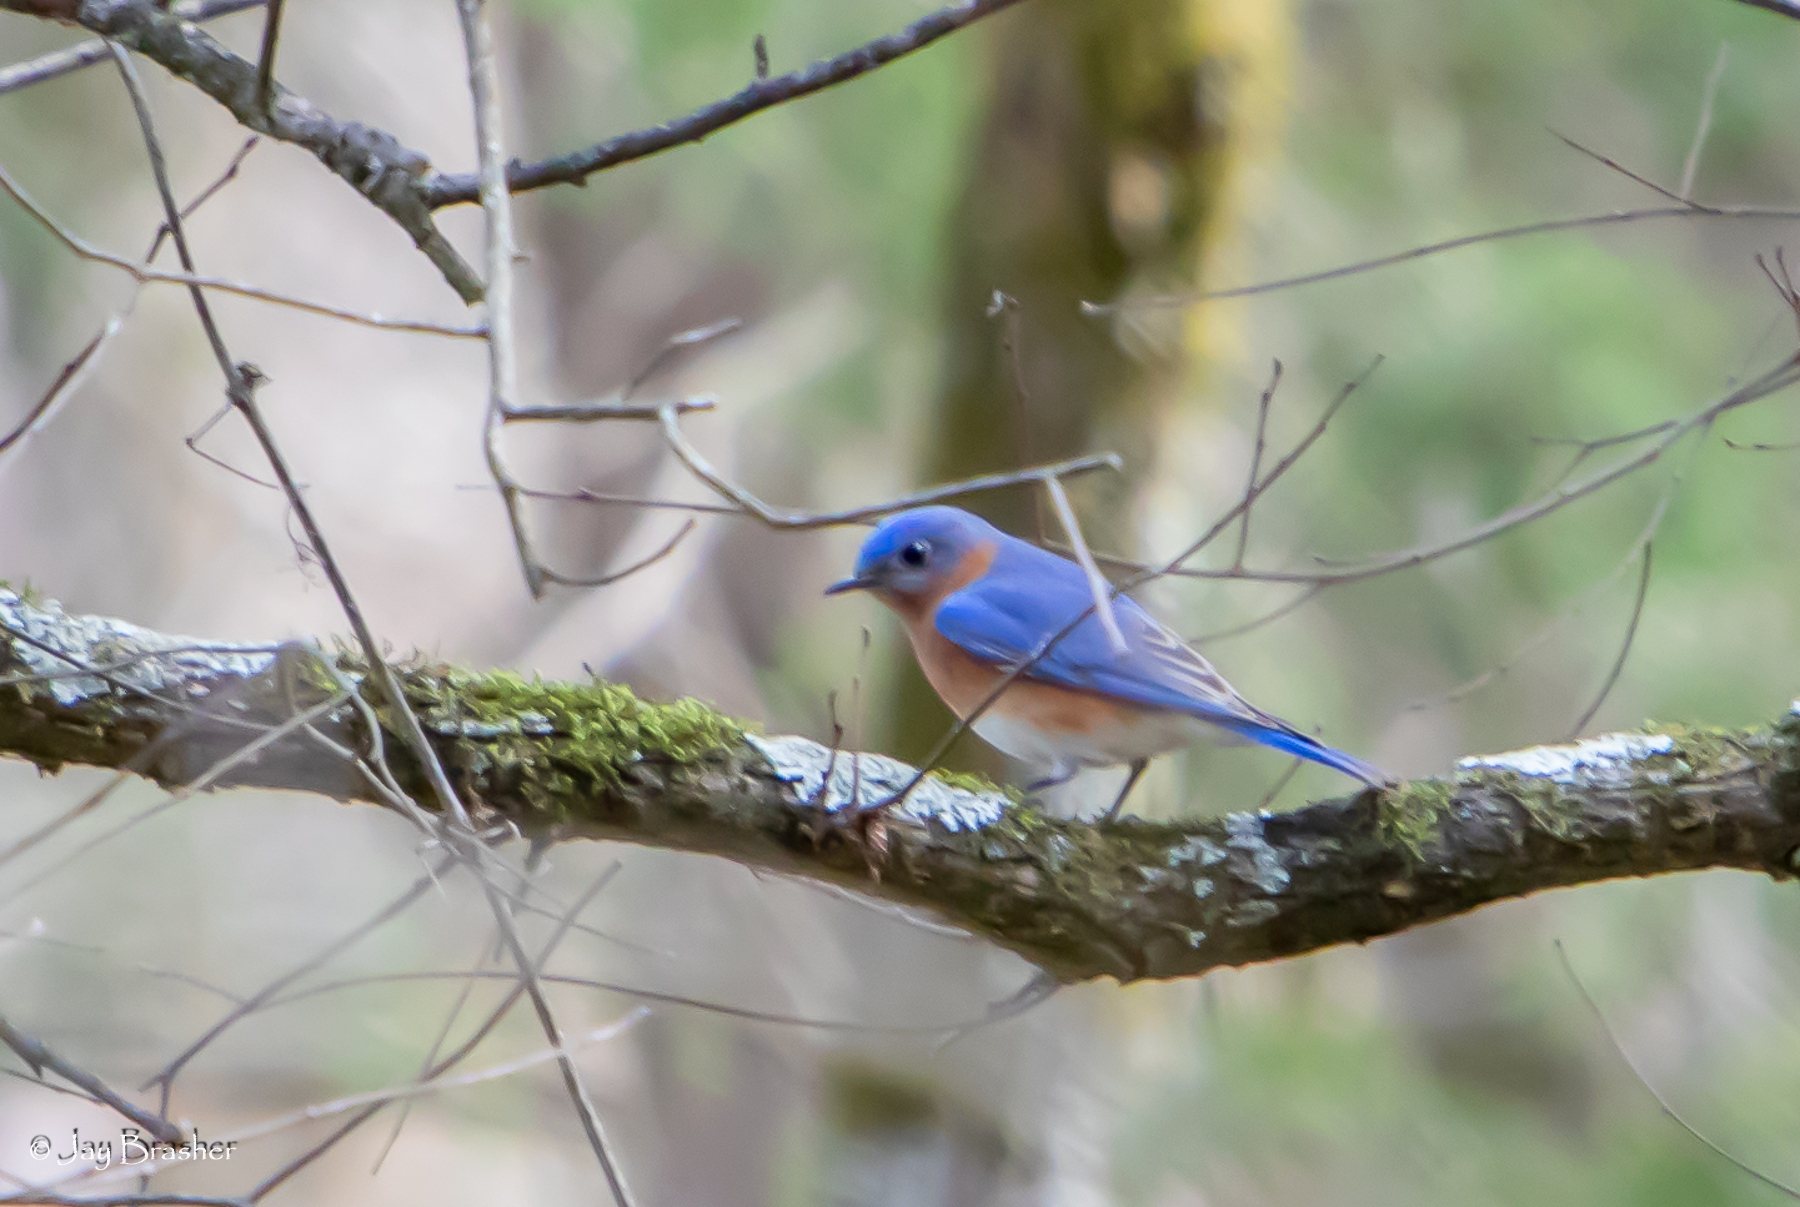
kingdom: Animalia
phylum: Chordata
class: Aves
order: Passeriformes
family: Turdidae
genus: Sialia
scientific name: Sialia sialis
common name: Eastern bluebird
